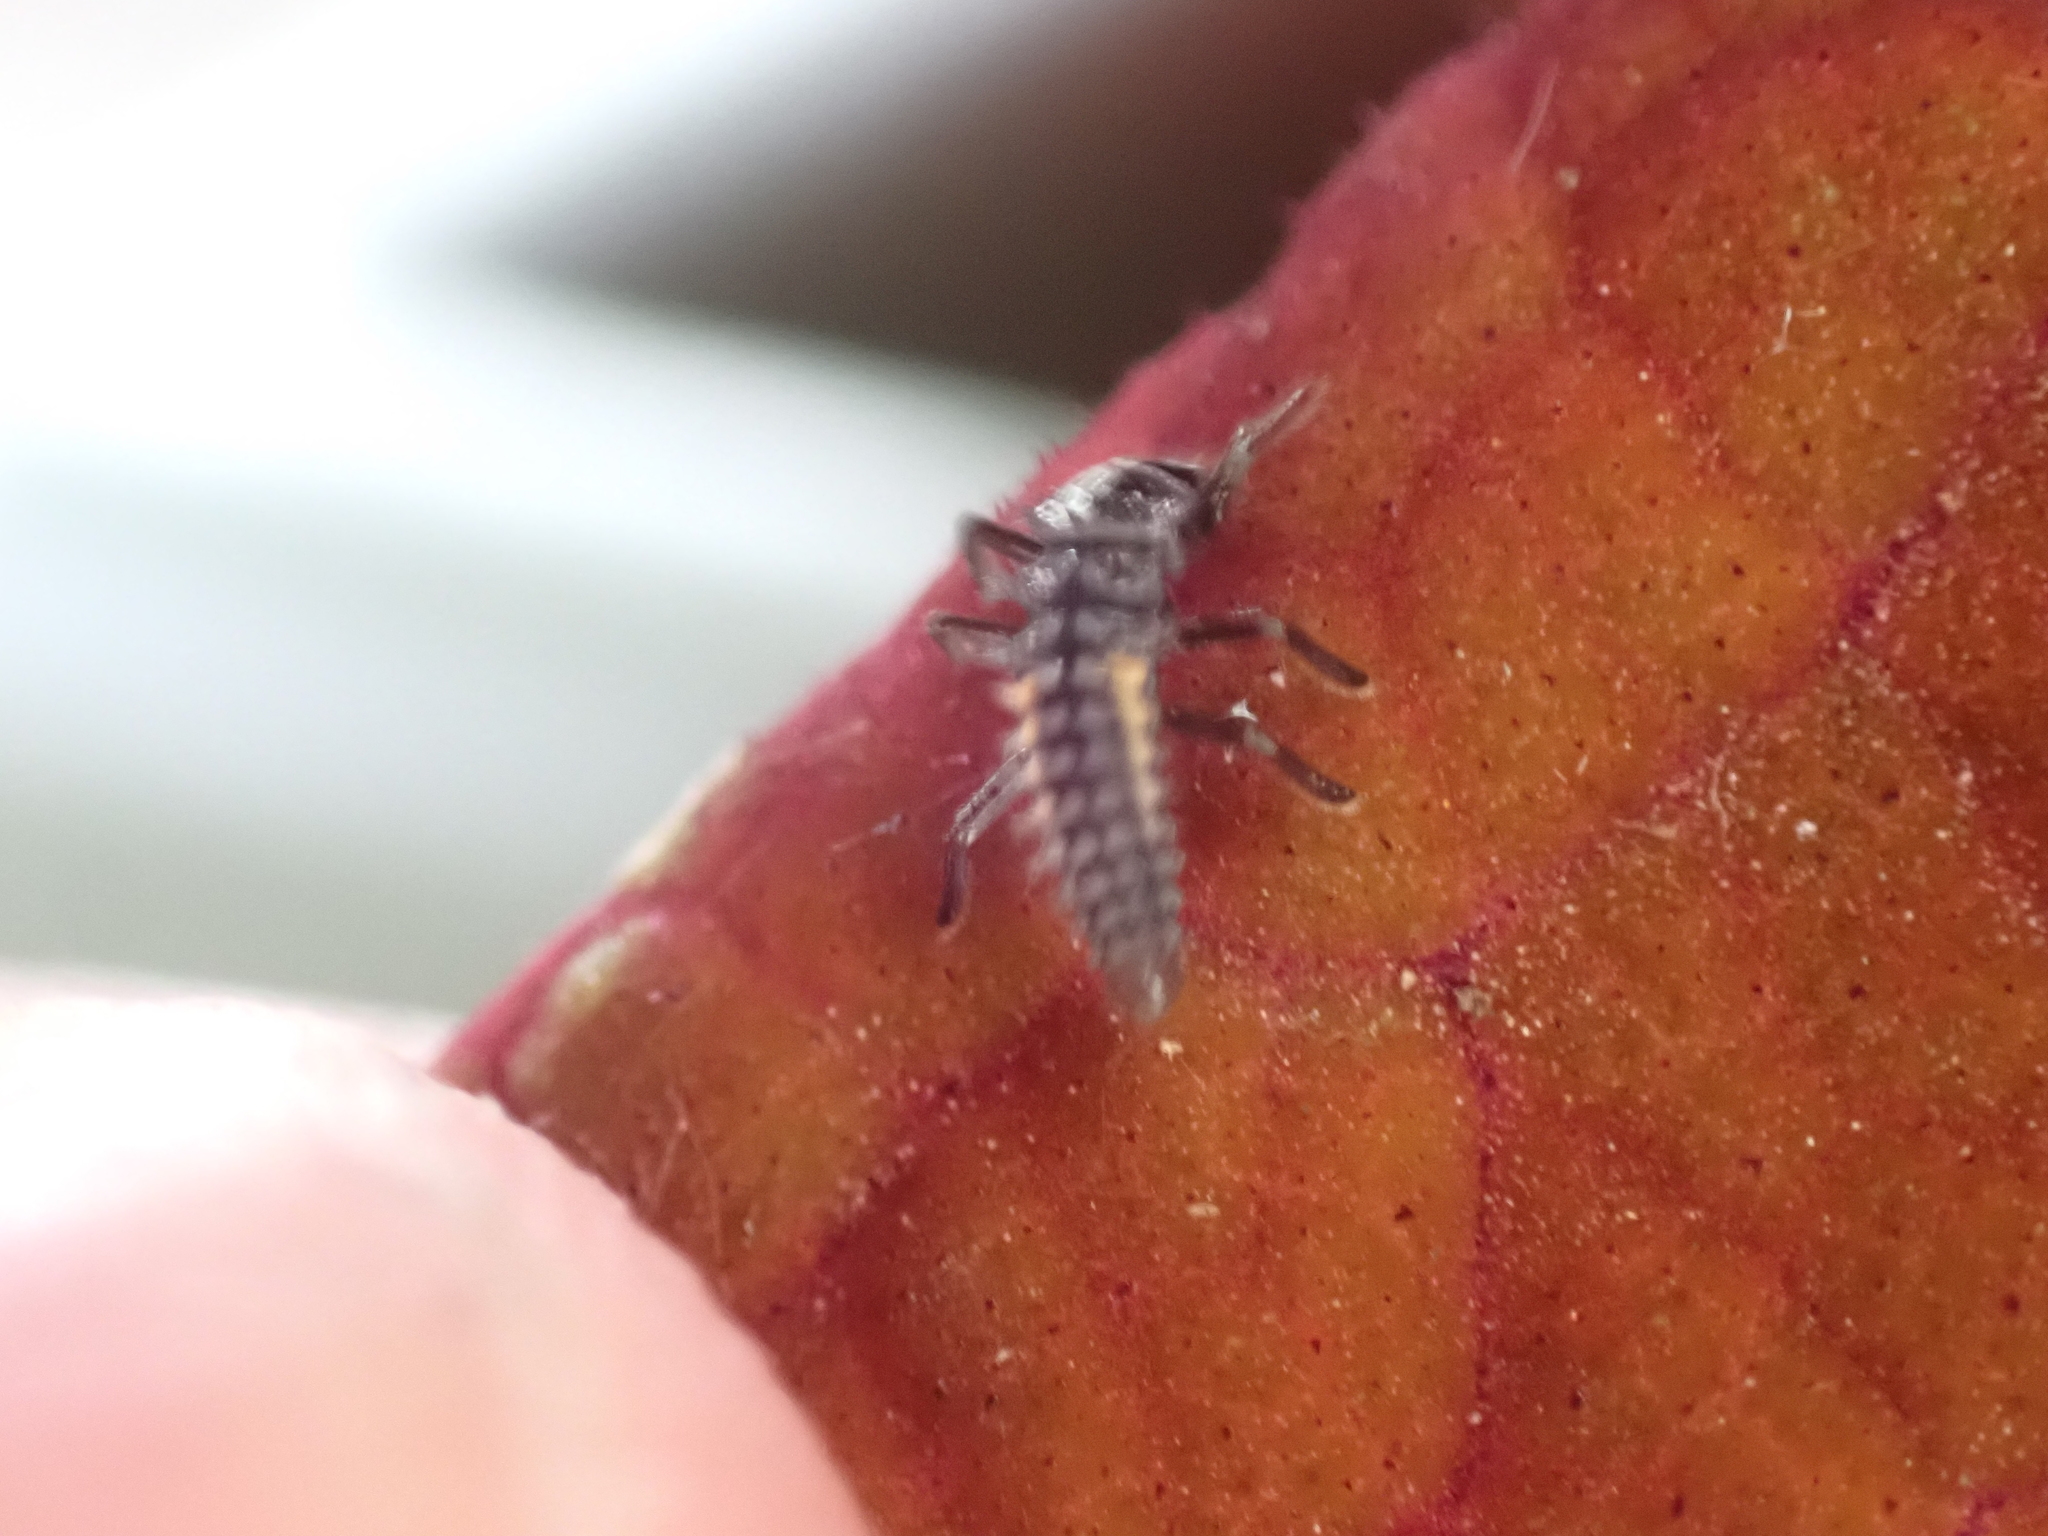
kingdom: Animalia
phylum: Arthropoda
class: Insecta
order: Coleoptera
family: Coccinellidae
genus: Harmonia
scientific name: Harmonia axyridis
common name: Harlequin ladybird
